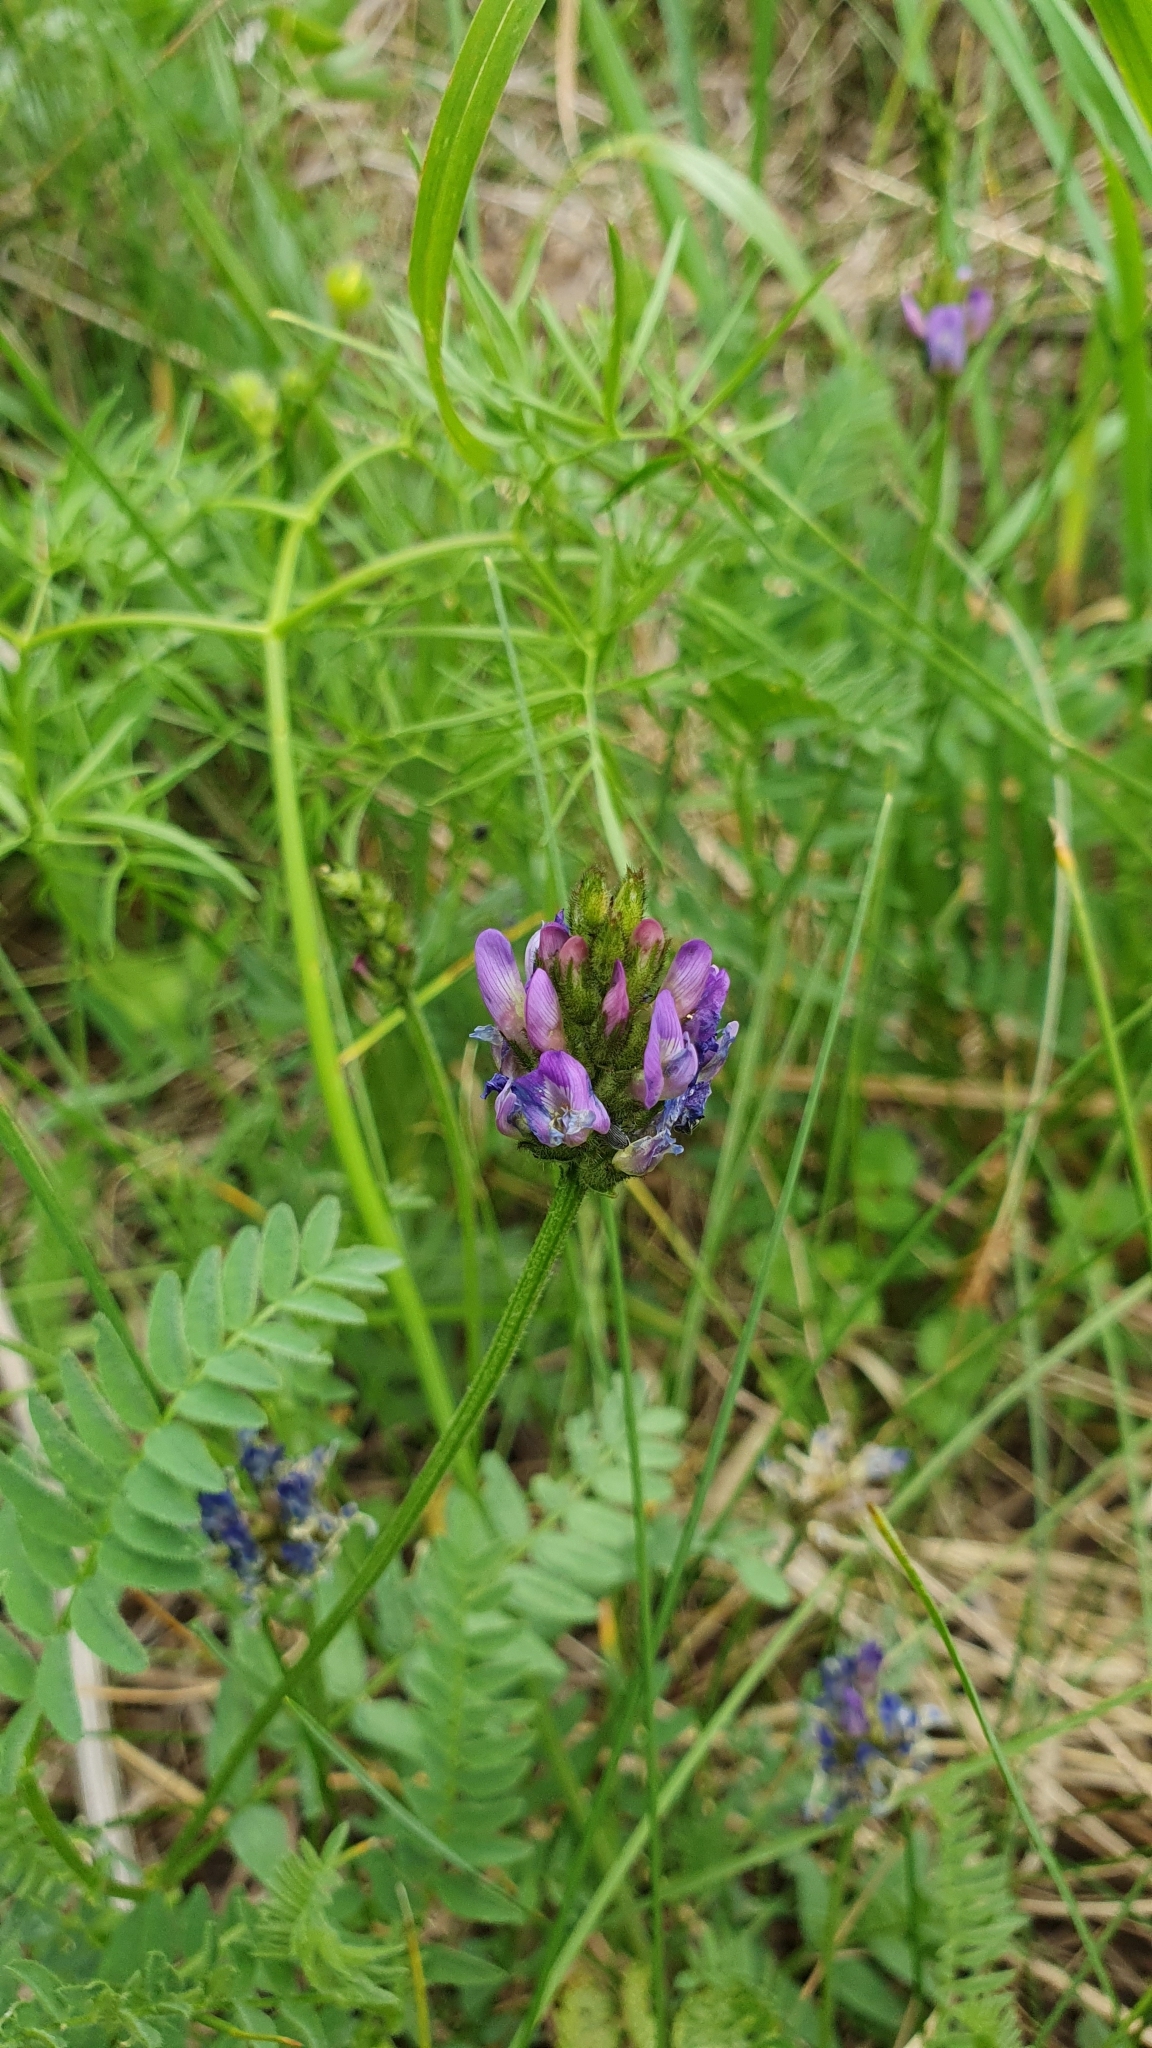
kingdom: Plantae
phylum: Tracheophyta
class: Magnoliopsida
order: Fabales
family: Fabaceae
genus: Astragalus
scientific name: Astragalus danicus
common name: Purple milk-vetch
